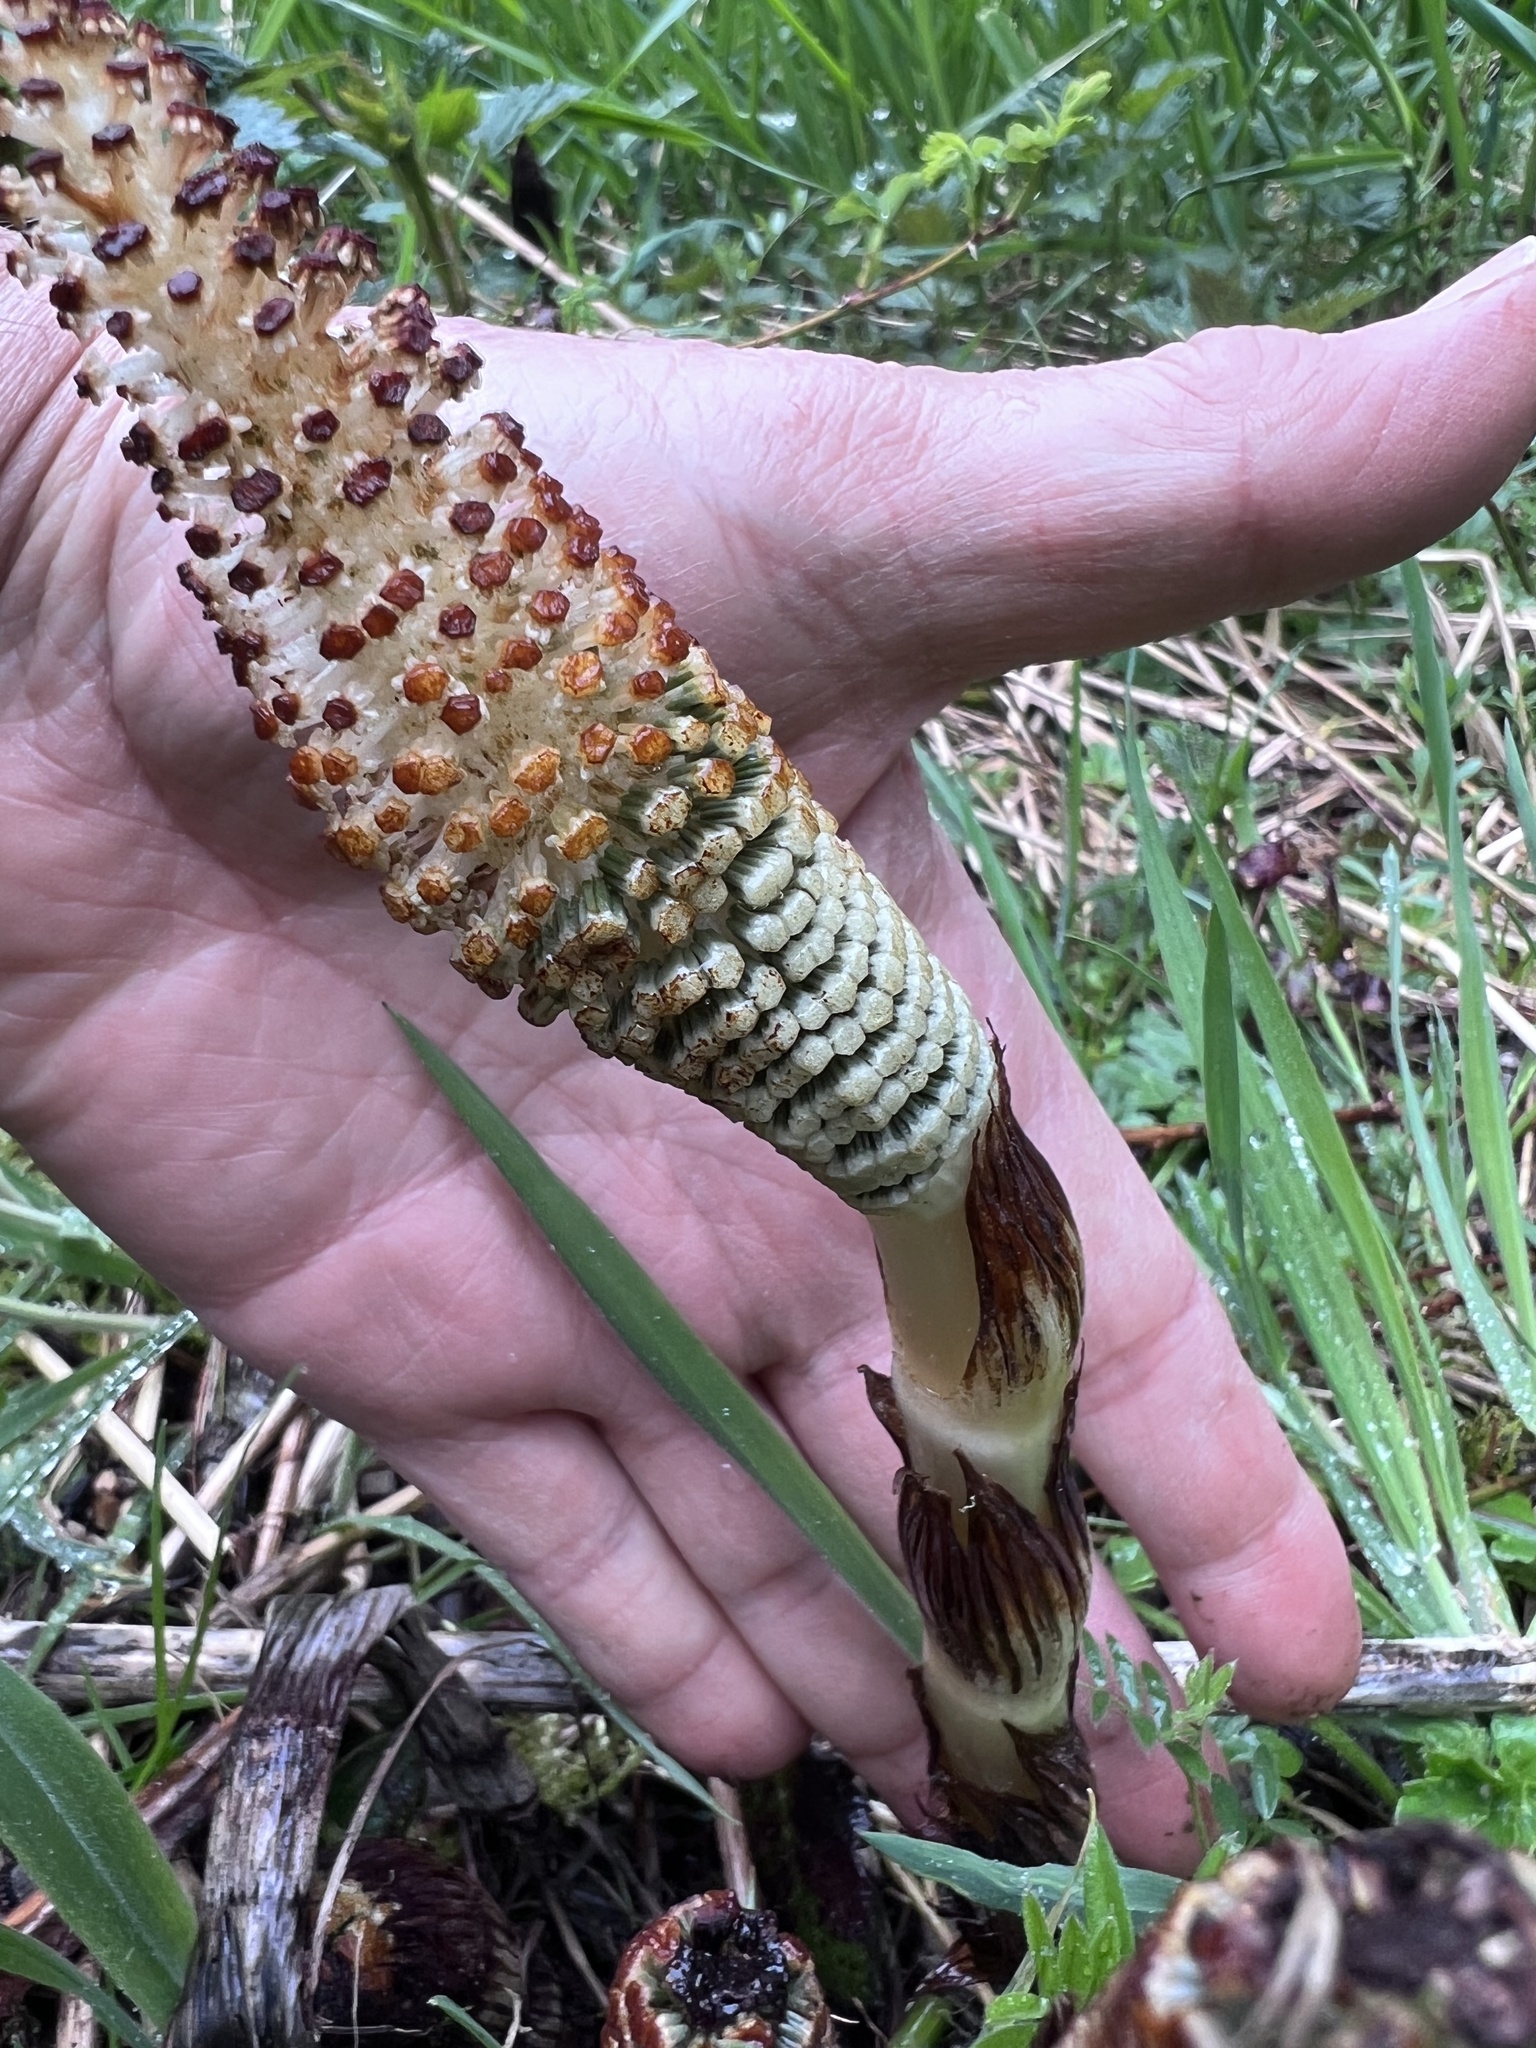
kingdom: Plantae
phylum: Tracheophyta
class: Polypodiopsida
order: Equisetales
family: Equisetaceae
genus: Equisetum
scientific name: Equisetum braunii
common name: Braun's horsetail
